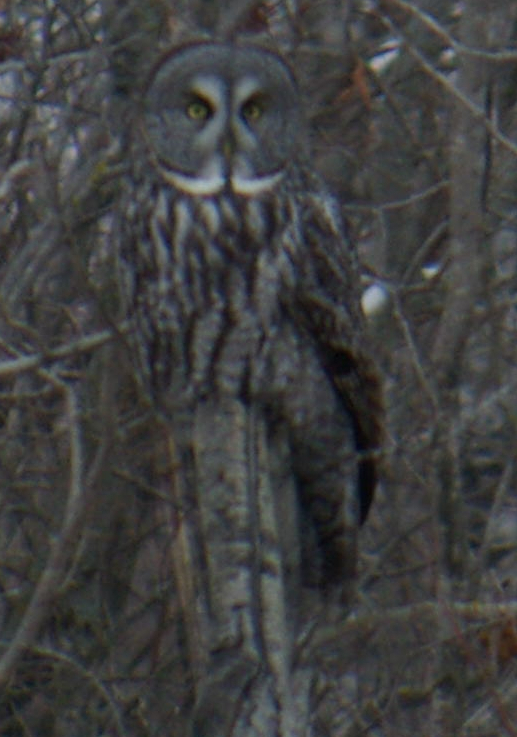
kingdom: Animalia
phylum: Chordata
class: Aves
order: Strigiformes
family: Strigidae
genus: Strix
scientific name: Strix nebulosa
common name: Great grey owl
